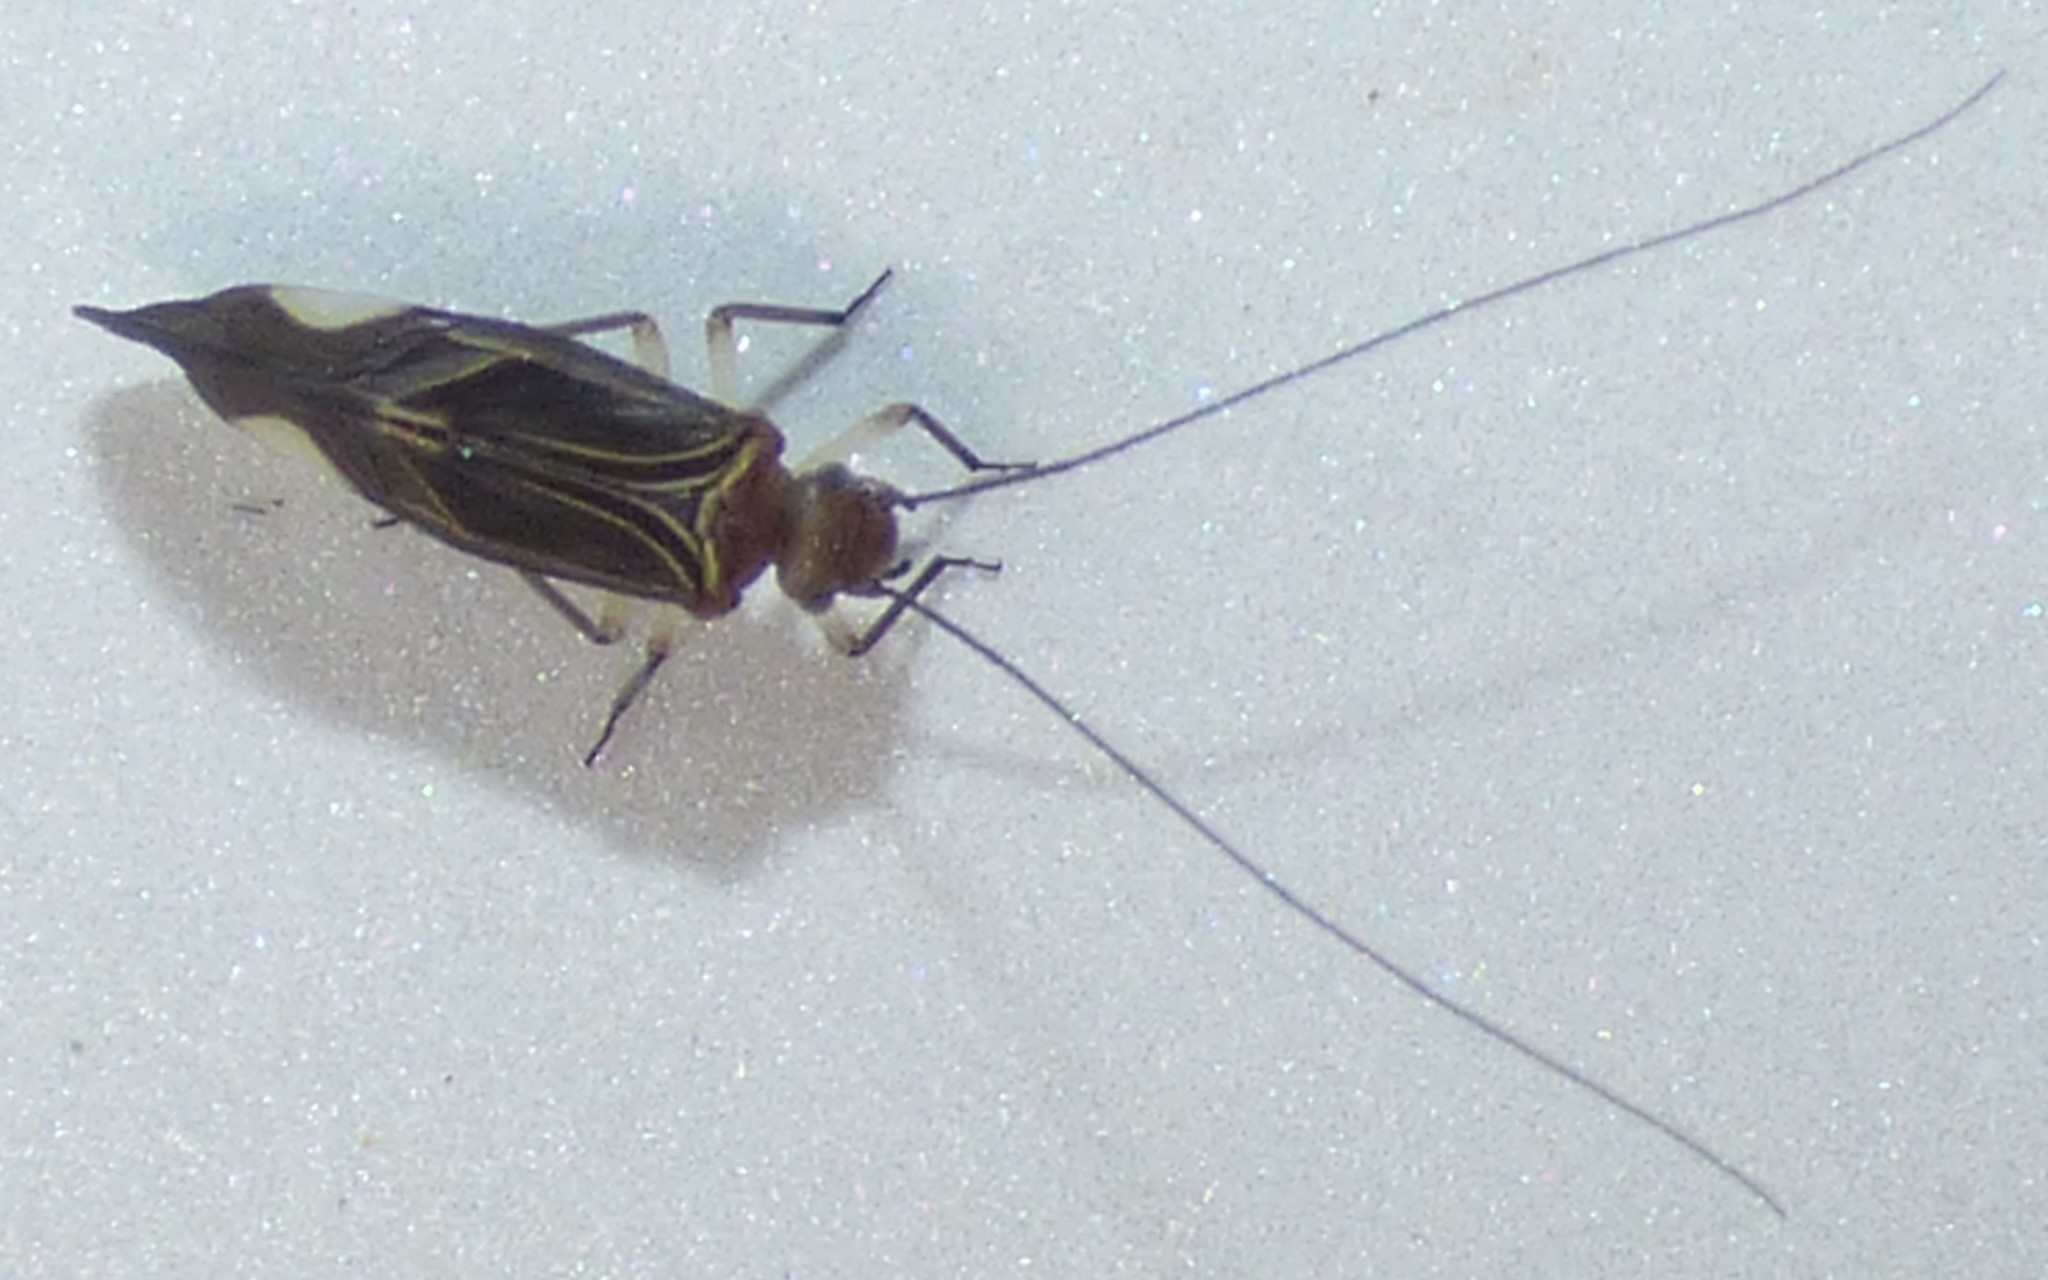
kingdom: Animalia
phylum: Arthropoda
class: Insecta
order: Psocodea
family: Psocidae
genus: Cerastipsocus
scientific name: Cerastipsocus venosus
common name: Tree cattle
